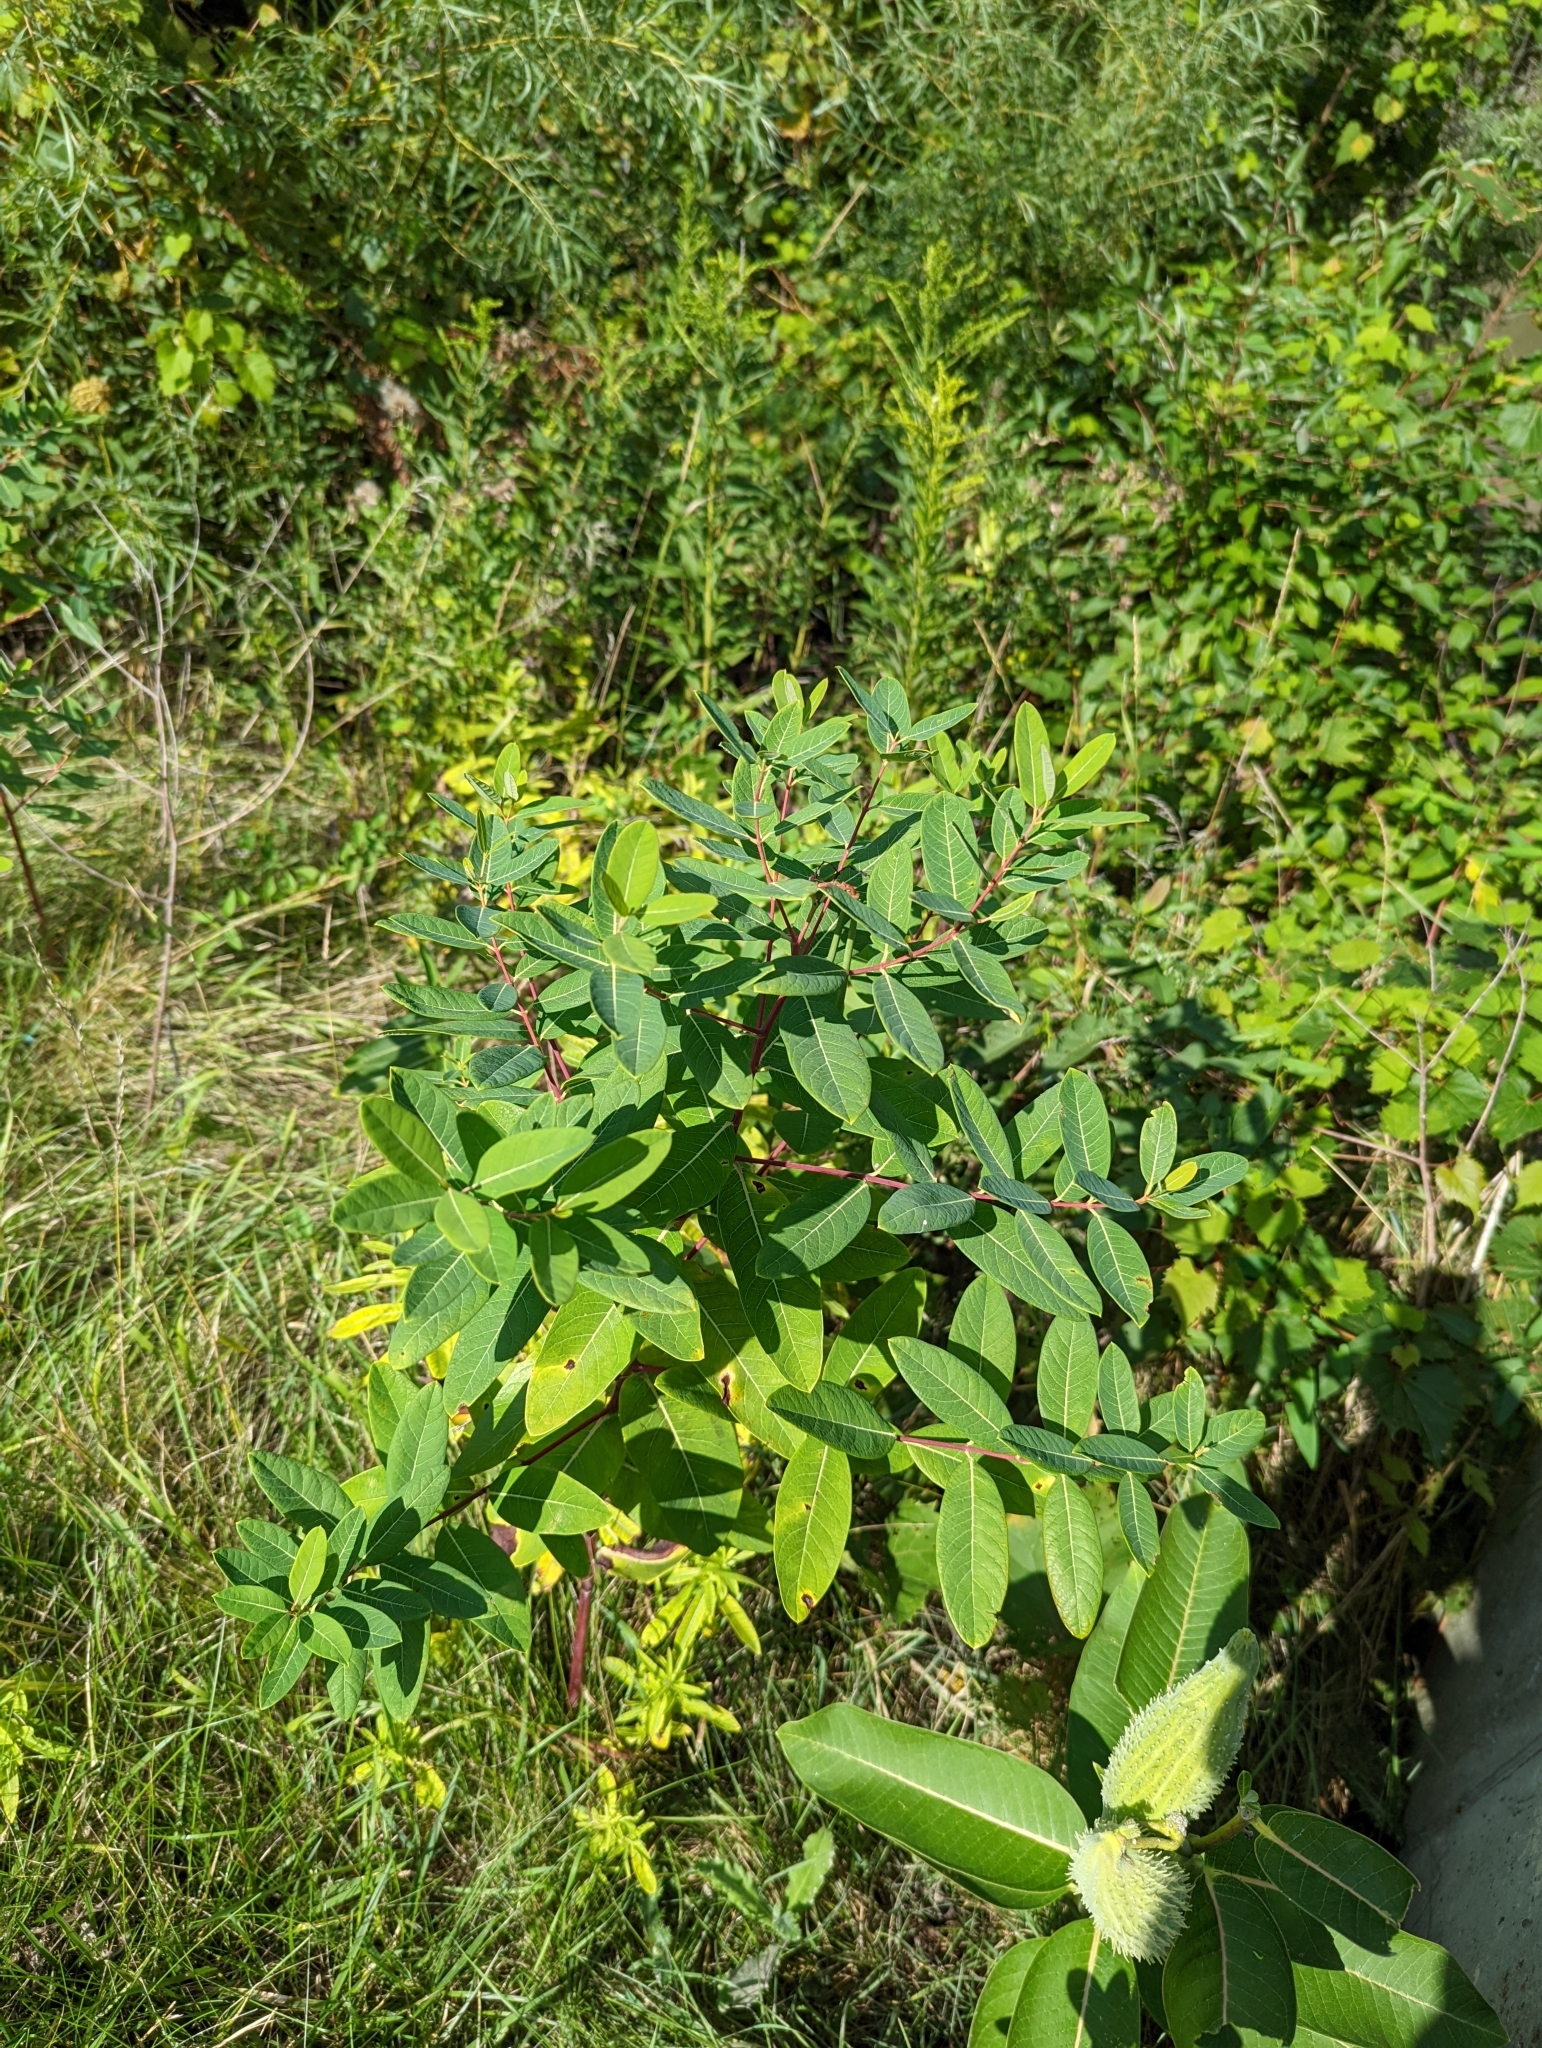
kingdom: Plantae
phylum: Tracheophyta
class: Magnoliopsida
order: Gentianales
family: Apocynaceae
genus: Apocynum
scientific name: Apocynum cannabinum
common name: Hemp dogbane
